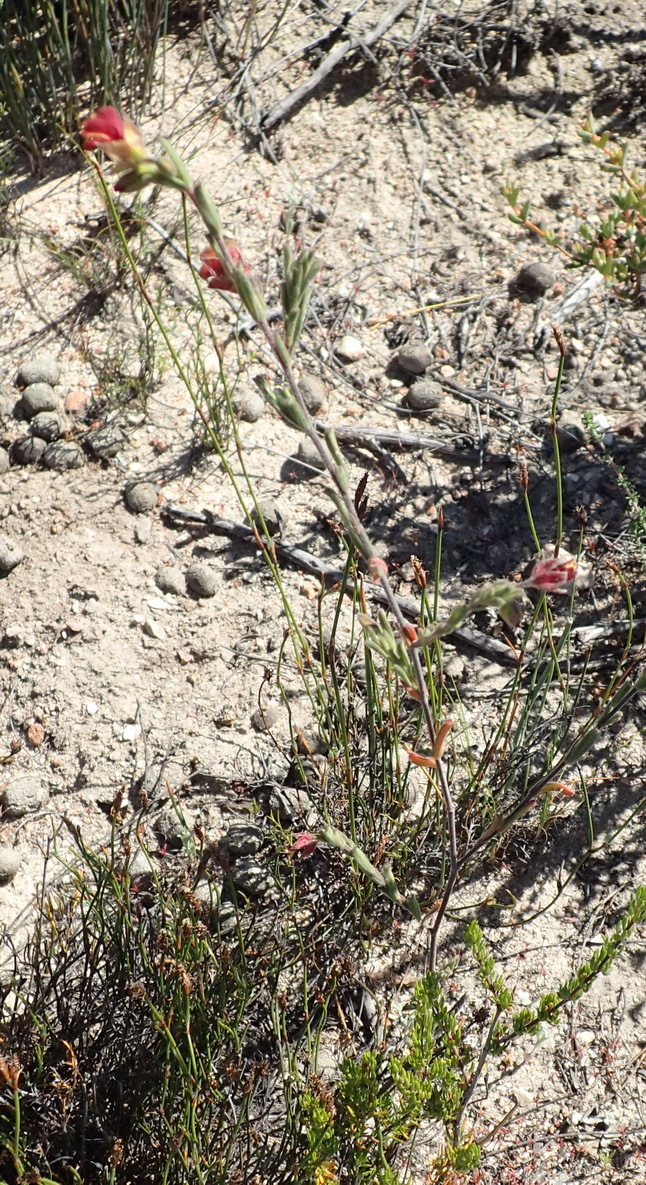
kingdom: Plantae
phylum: Tracheophyta
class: Magnoliopsida
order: Malvales
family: Malvaceae
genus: Hermannia
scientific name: Hermannia flammula
